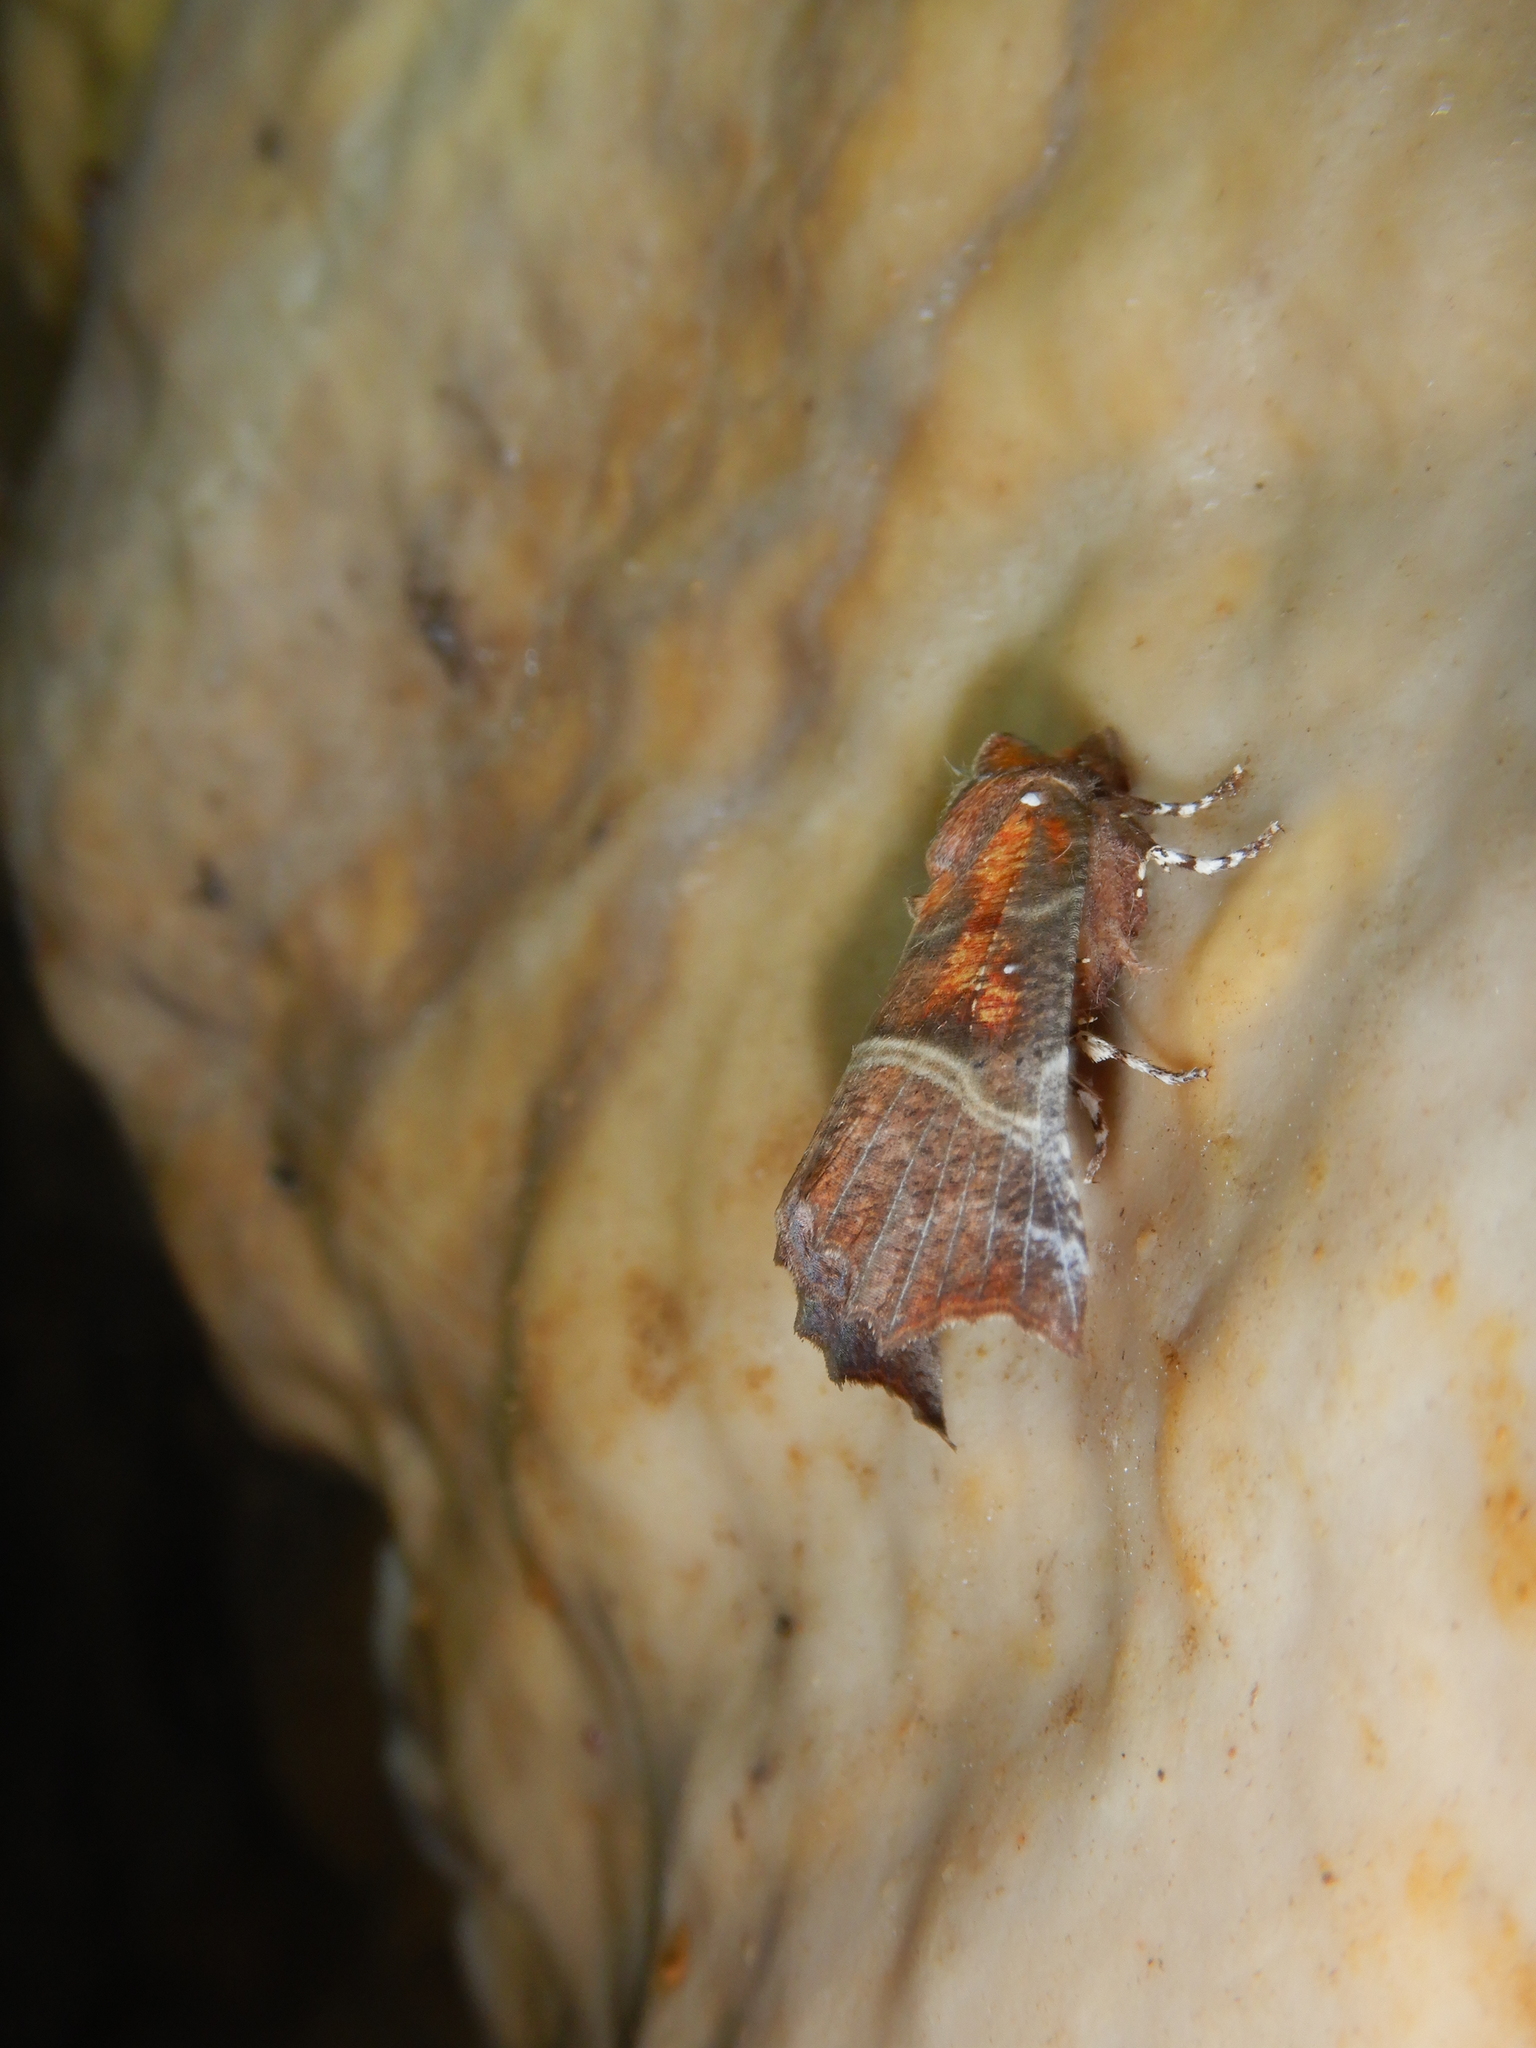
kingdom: Animalia
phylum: Arthropoda
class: Insecta
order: Lepidoptera
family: Erebidae
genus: Scoliopteryx
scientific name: Scoliopteryx libatrix
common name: Herald
